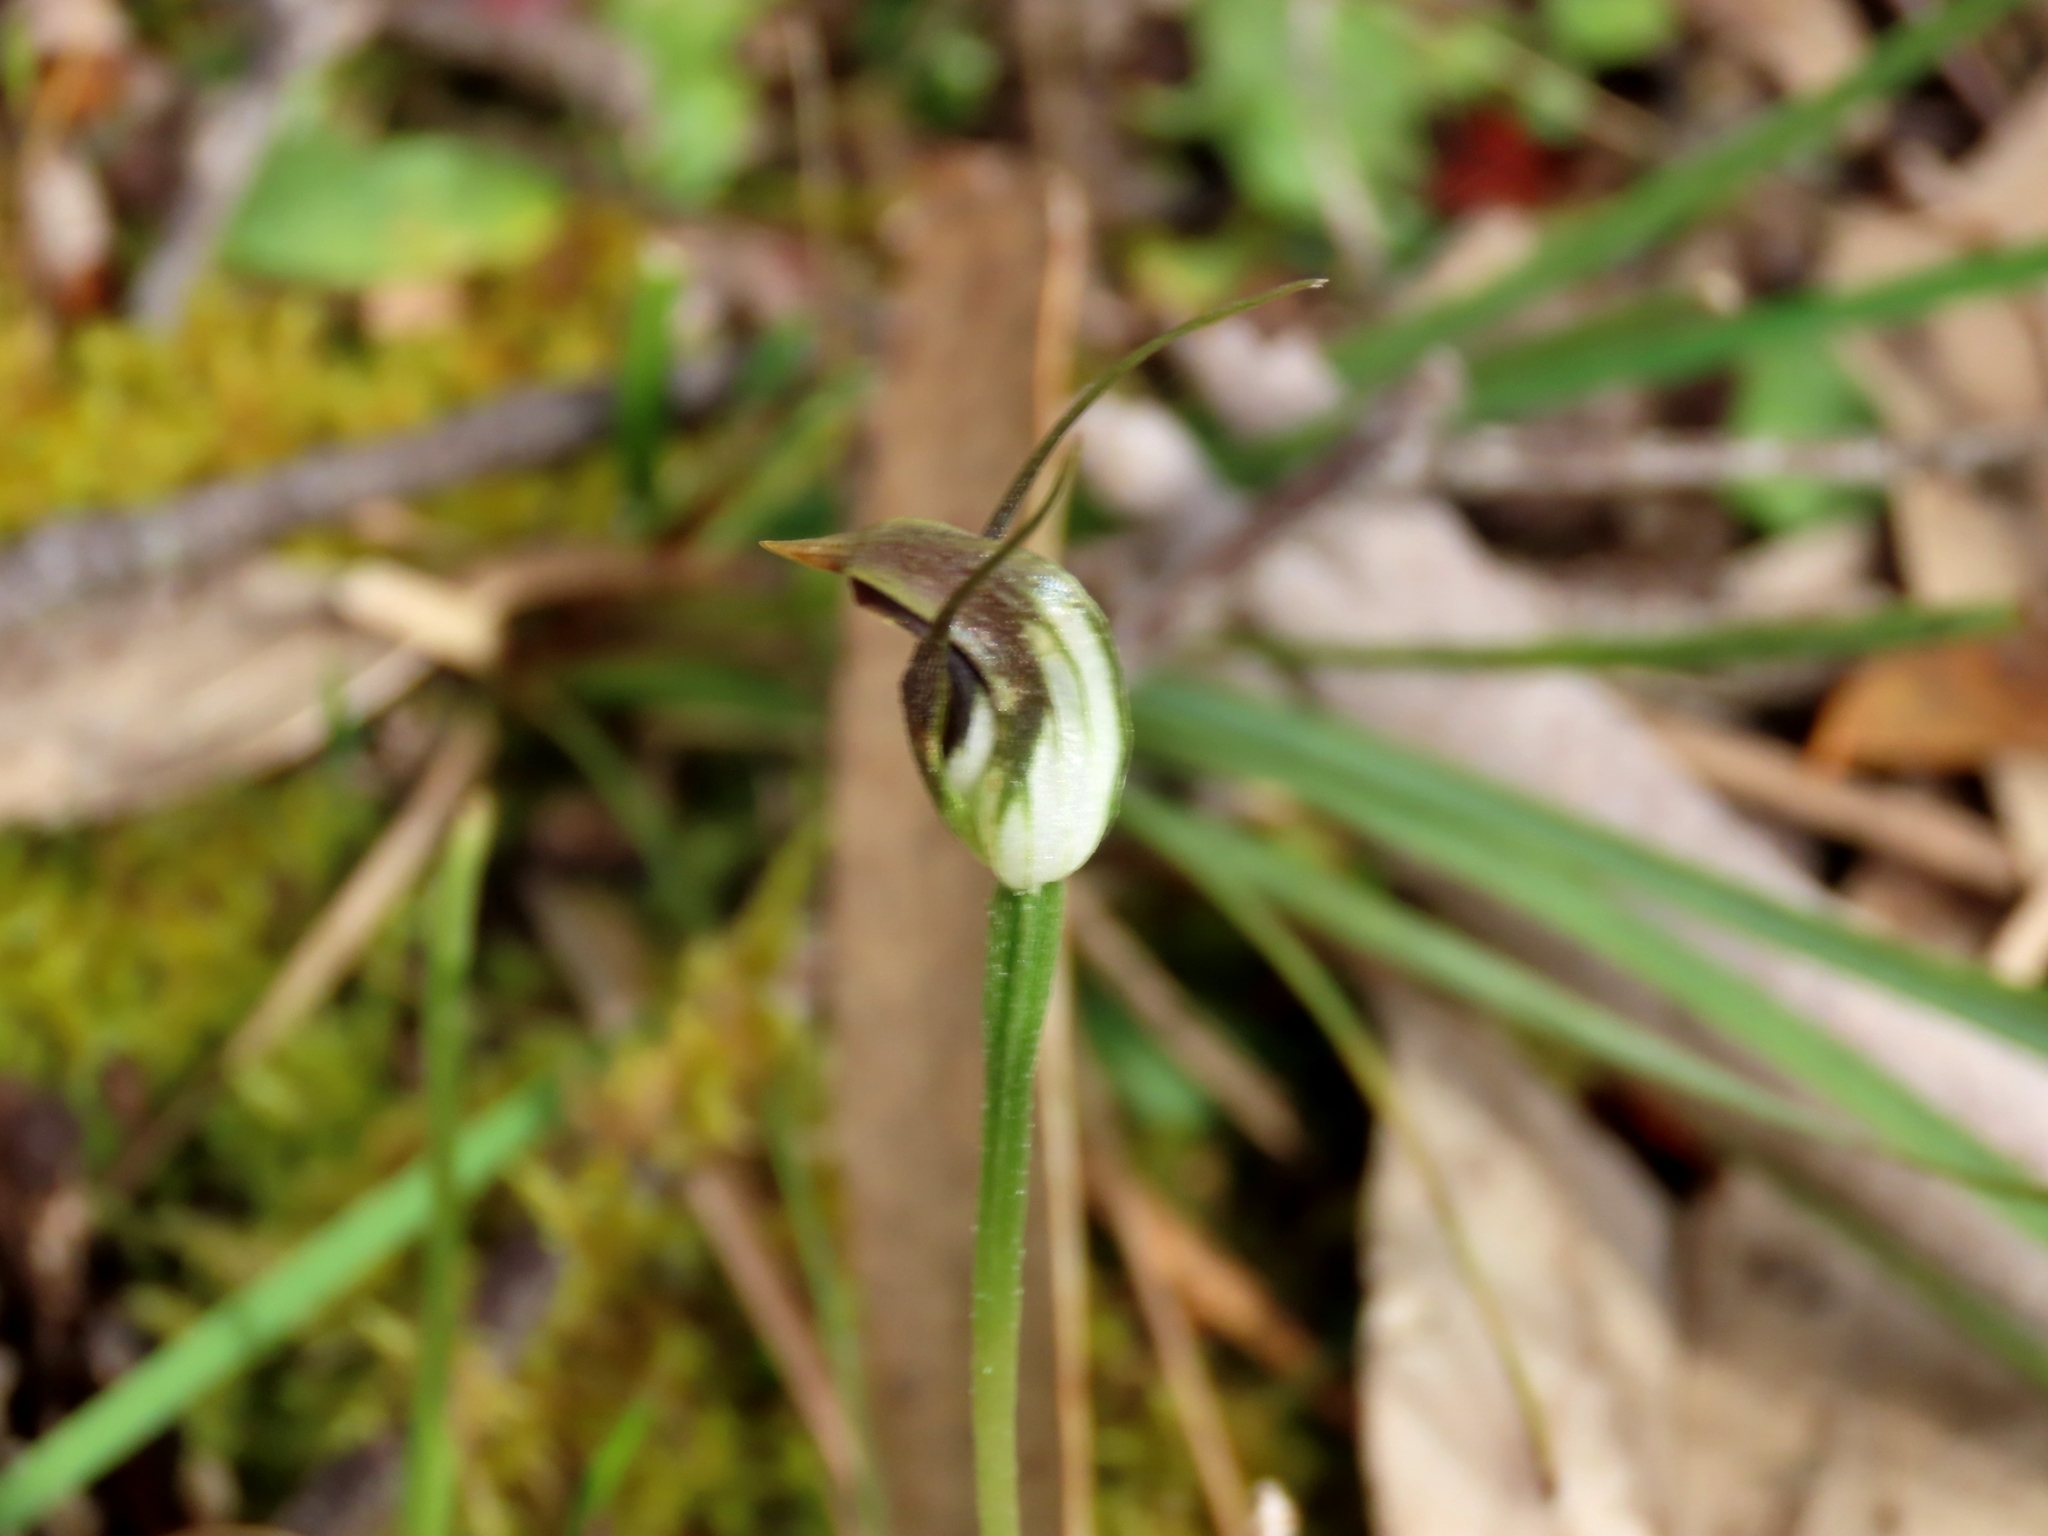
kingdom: Plantae
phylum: Tracheophyta
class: Liliopsida
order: Asparagales
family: Orchidaceae
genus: Pterostylis
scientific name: Pterostylis pedunculata
